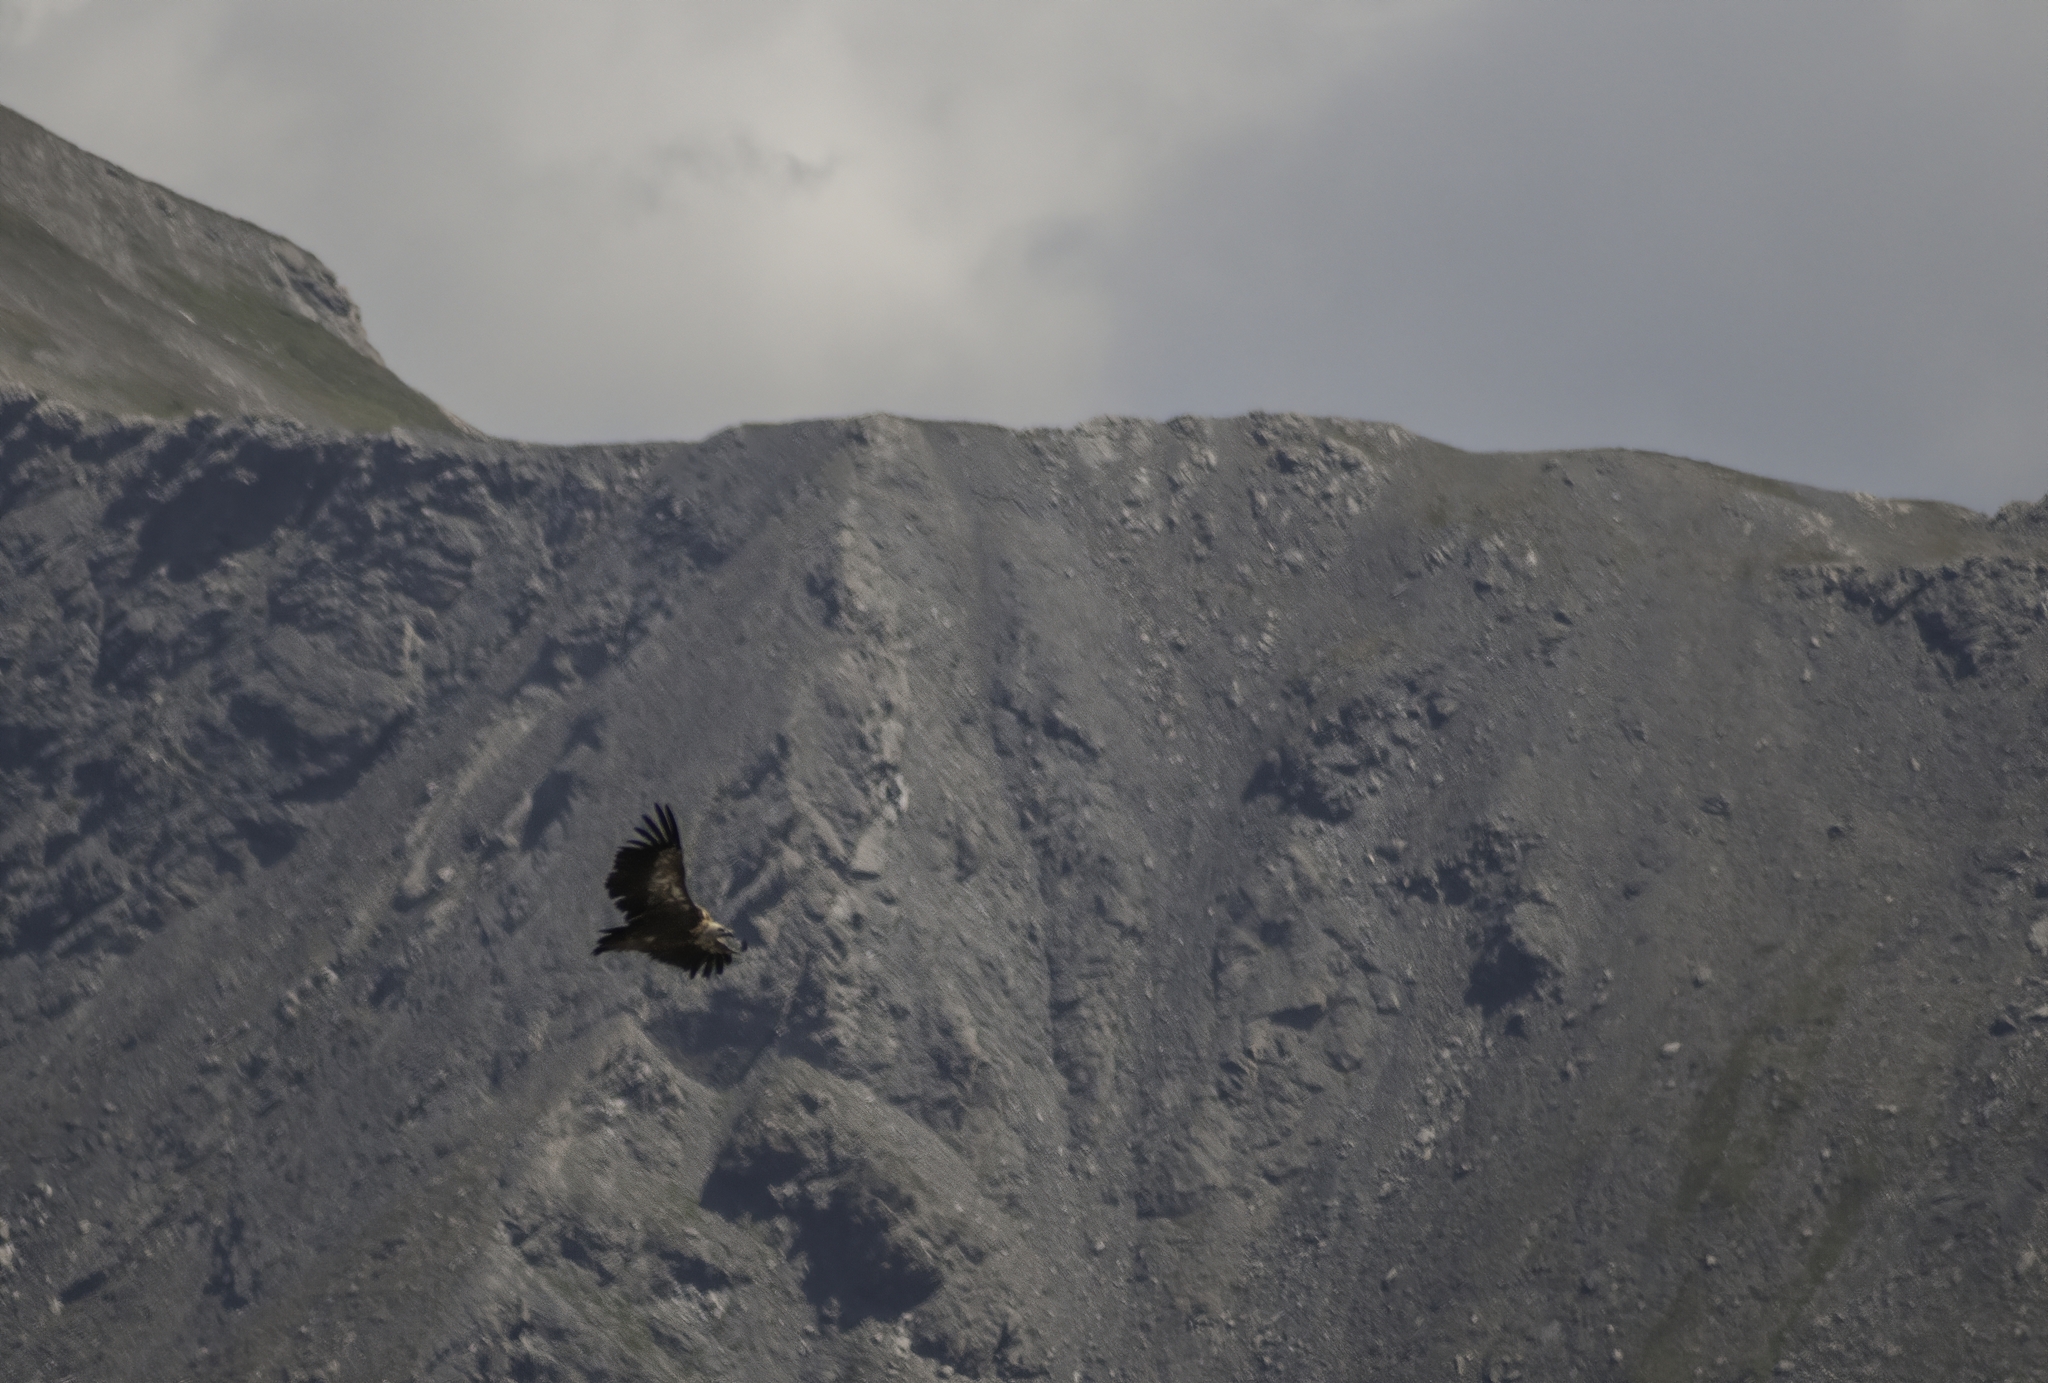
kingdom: Animalia
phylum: Chordata
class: Aves
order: Accipitriformes
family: Accipitridae
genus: Gyps
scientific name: Gyps fulvus
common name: Griffon vulture
